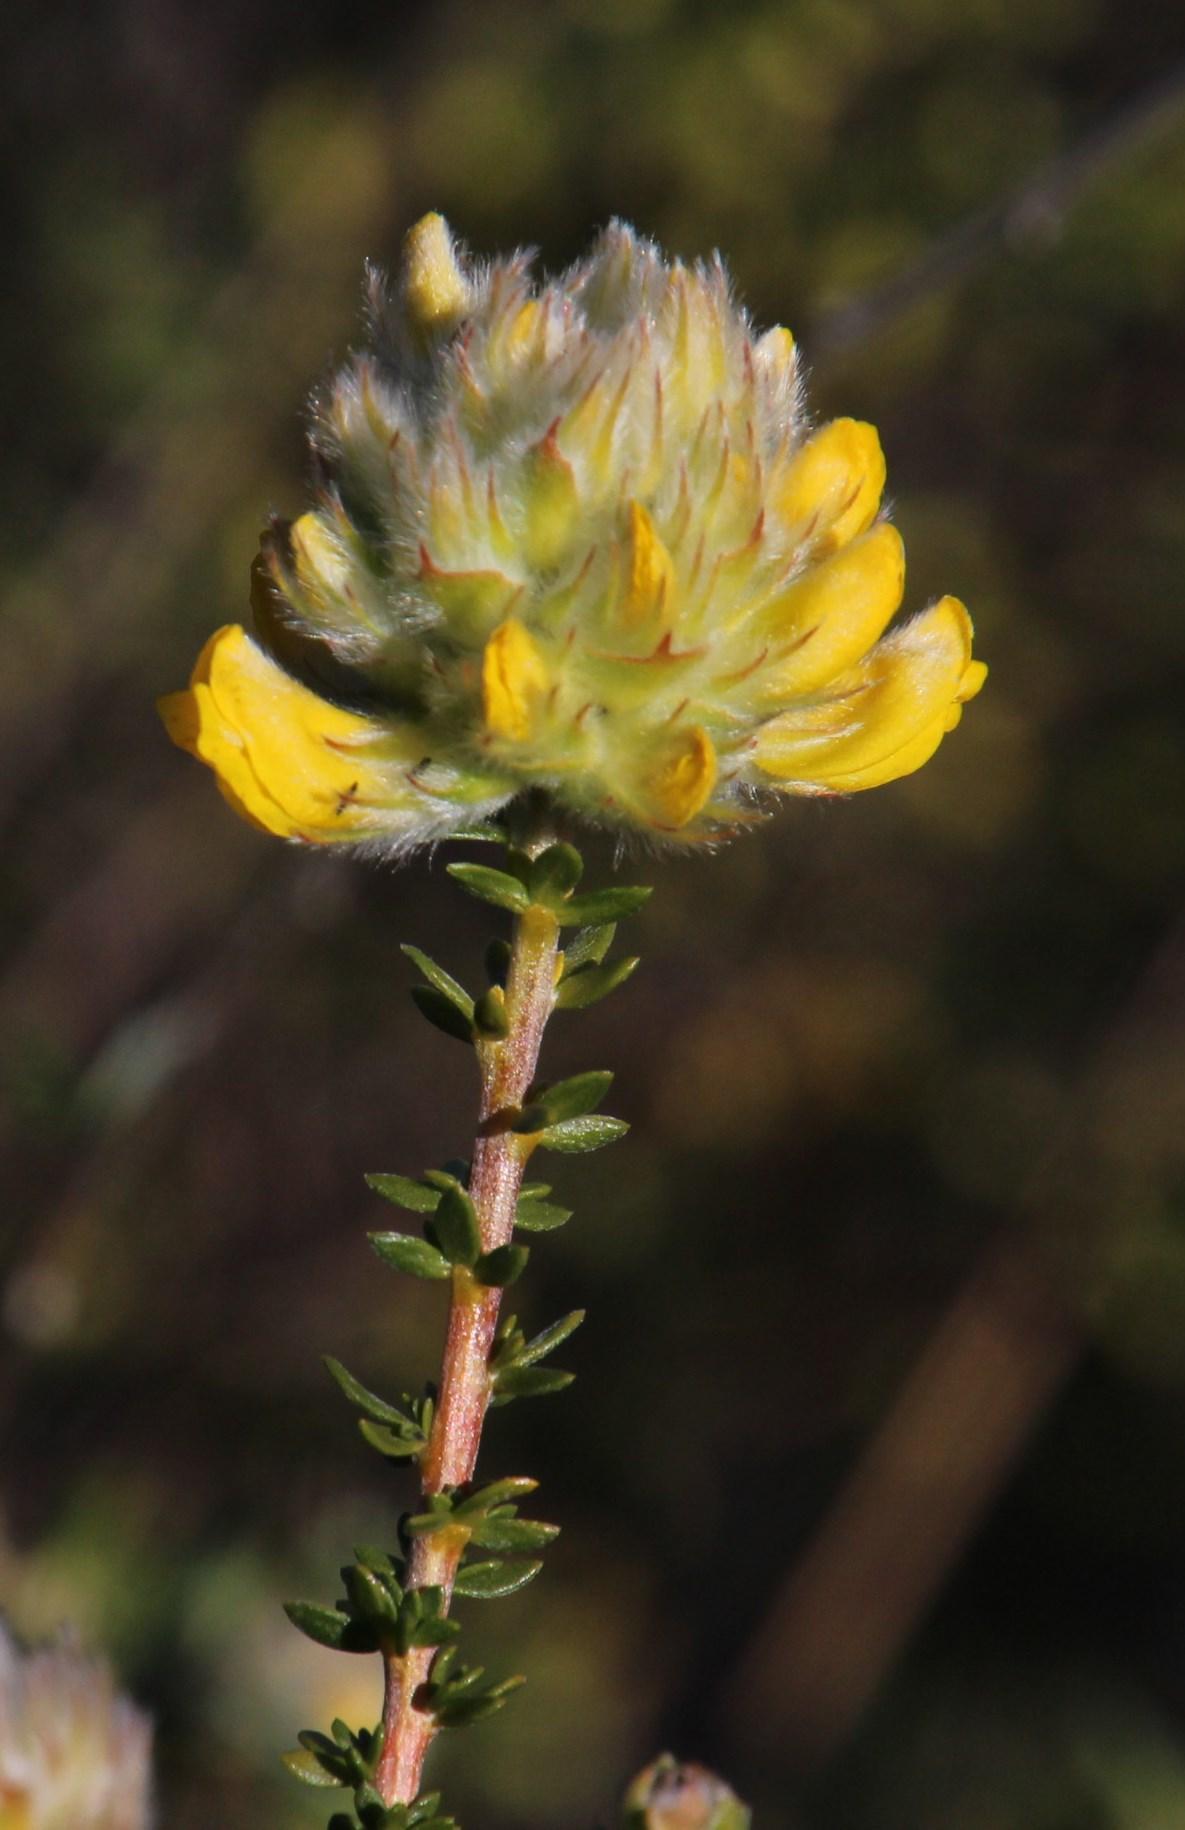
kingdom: Plantae
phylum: Tracheophyta
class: Magnoliopsida
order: Fabales
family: Fabaceae
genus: Aspalathus
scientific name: Aspalathus quinquefolia
